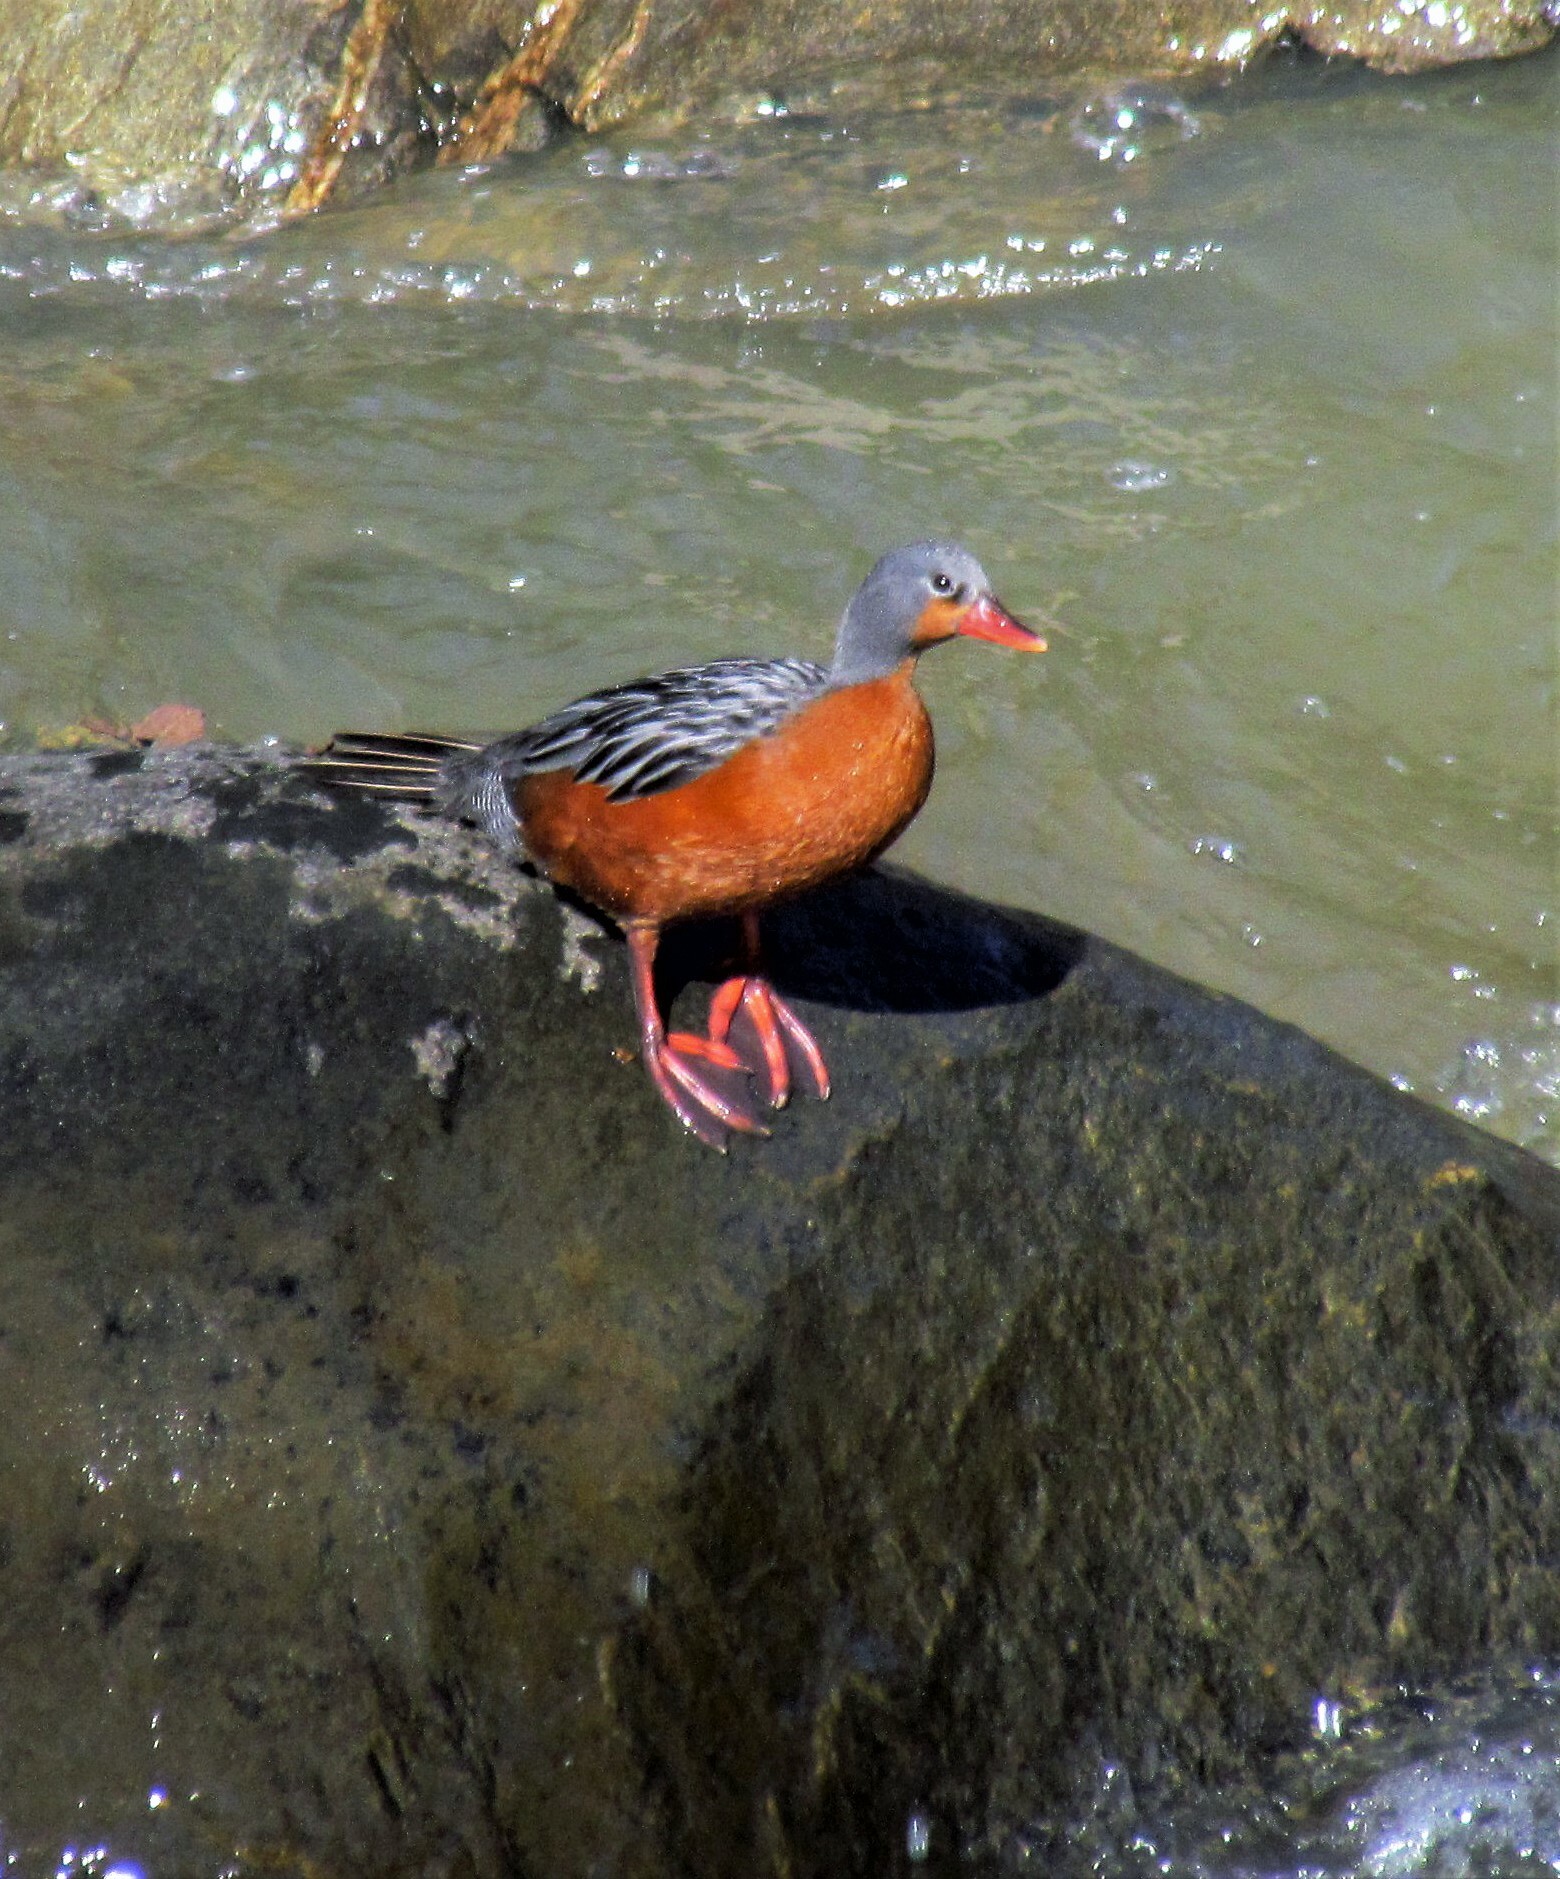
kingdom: Animalia
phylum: Chordata
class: Aves
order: Anseriformes
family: Anatidae
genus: Merganetta
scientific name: Merganetta armata
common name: Torrent duck
